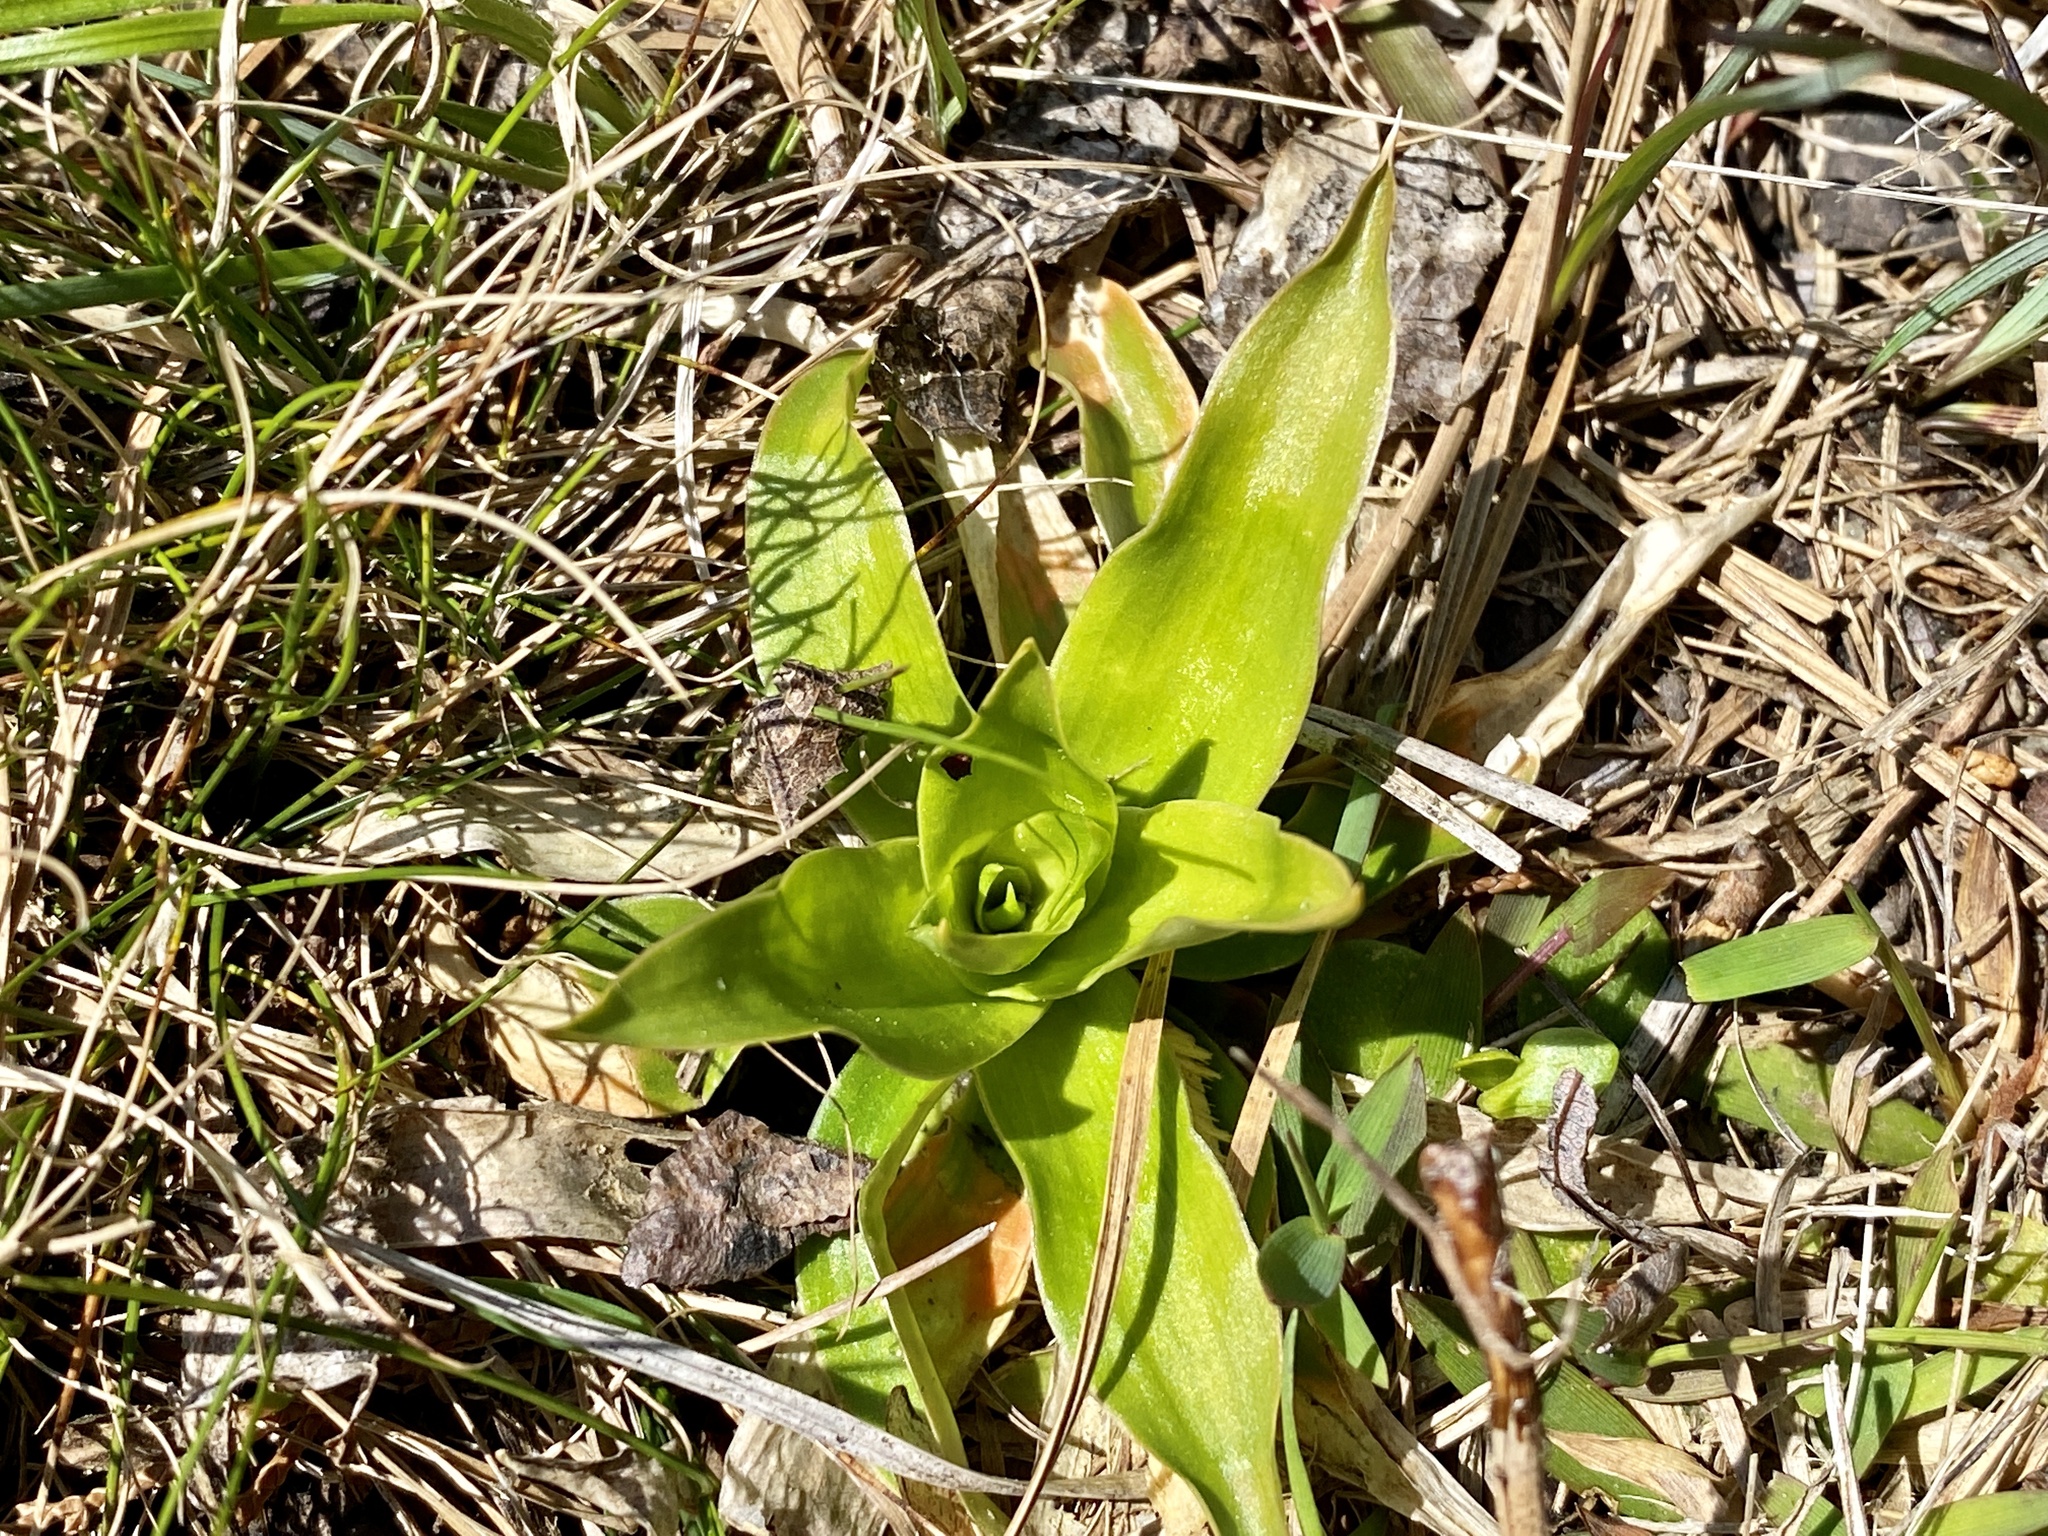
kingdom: Plantae
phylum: Tracheophyta
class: Liliopsida
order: Dioscoreales
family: Nartheciaceae
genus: Aletris
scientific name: Aletris farinosa
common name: Colicroot
